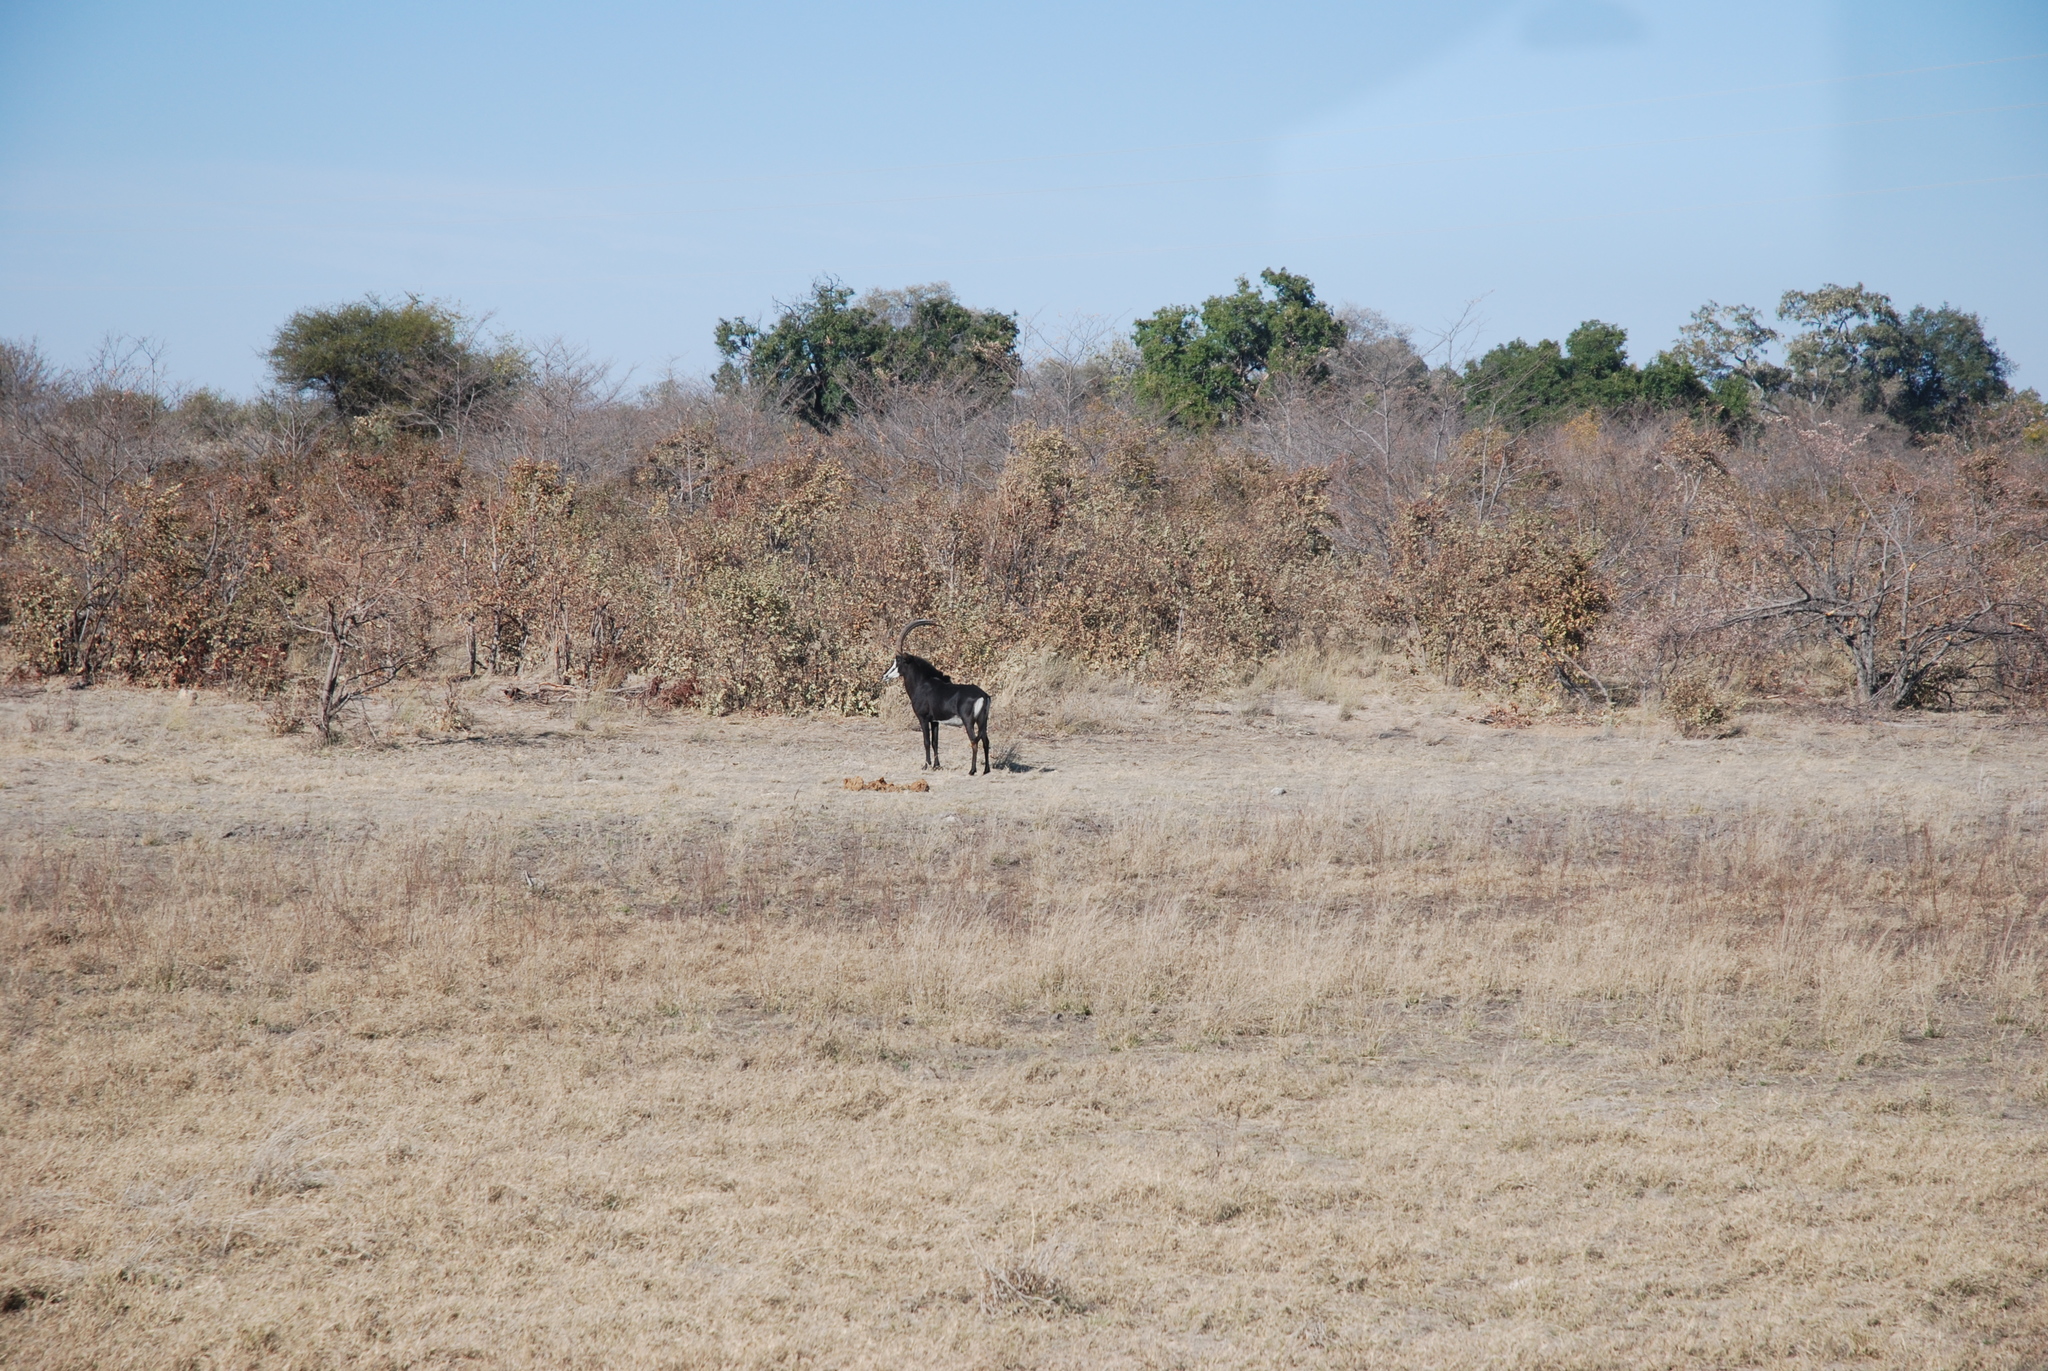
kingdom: Animalia
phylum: Chordata
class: Mammalia
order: Artiodactyla
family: Bovidae
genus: Hippotragus
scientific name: Hippotragus niger
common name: Sable antelope
